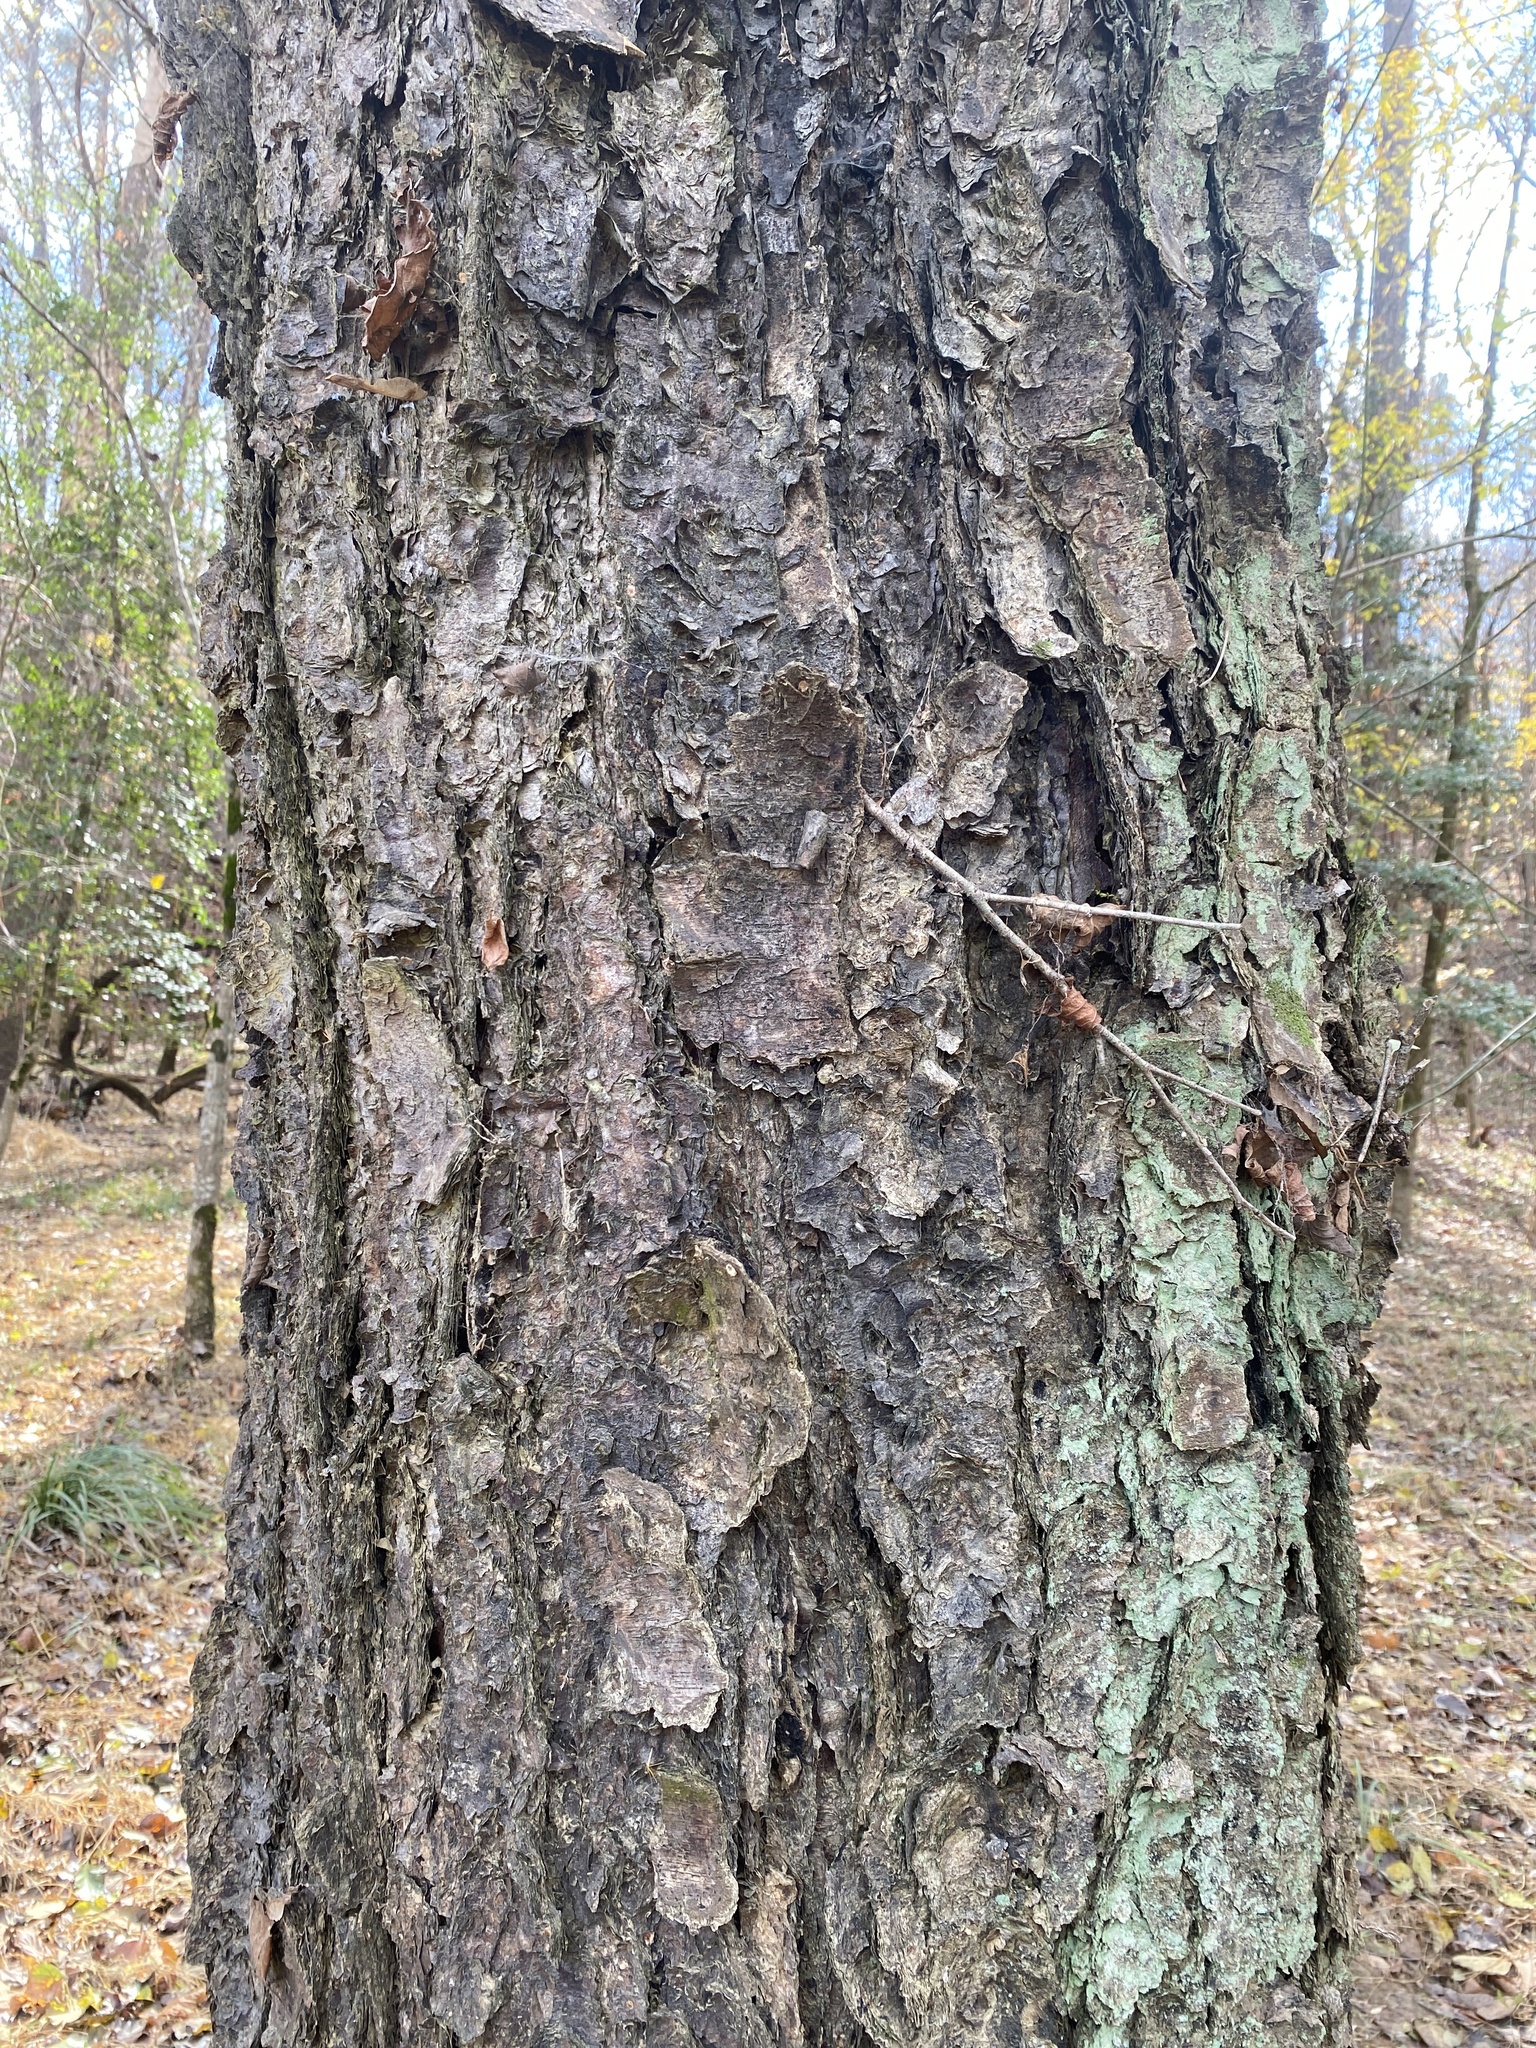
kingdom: Plantae
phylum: Tracheophyta
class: Magnoliopsida
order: Fagales
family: Betulaceae
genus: Betula
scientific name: Betula nigra
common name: Black birch
